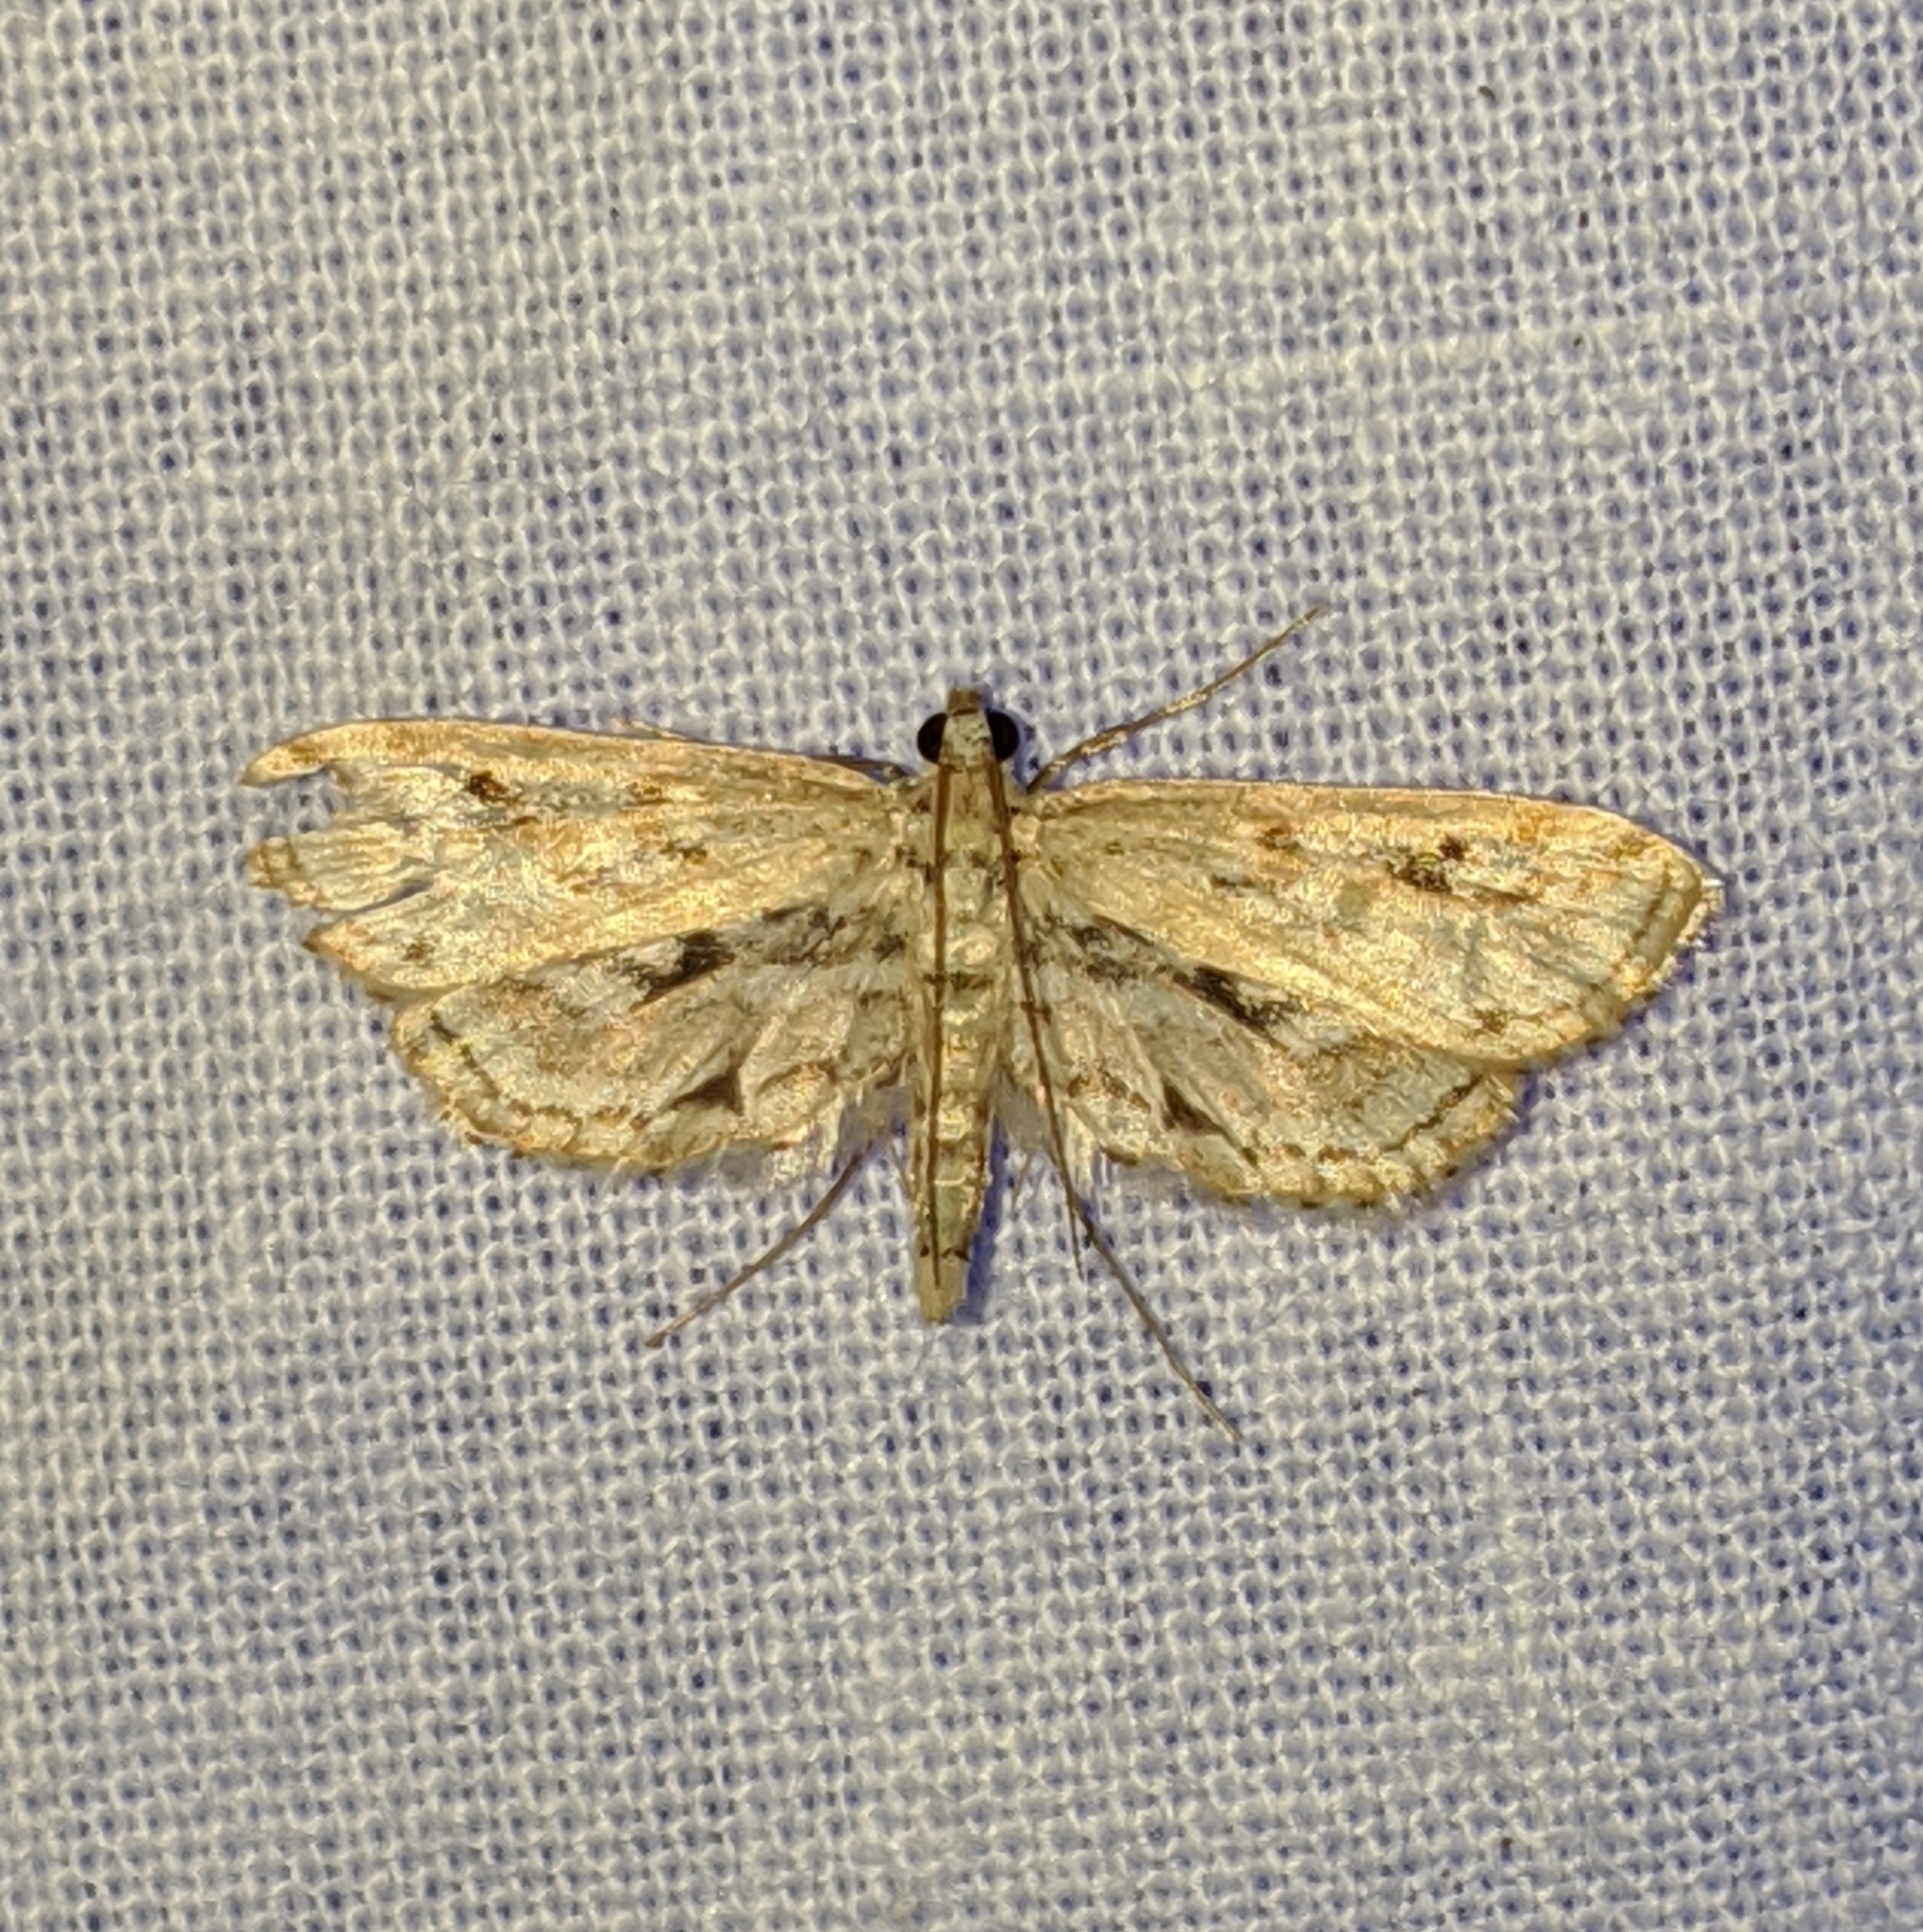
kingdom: Animalia
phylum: Arthropoda
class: Insecta
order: Lepidoptera
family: Crambidae
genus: Parapoynx
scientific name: Parapoynx allionealis
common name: Bladderwort casemaker
